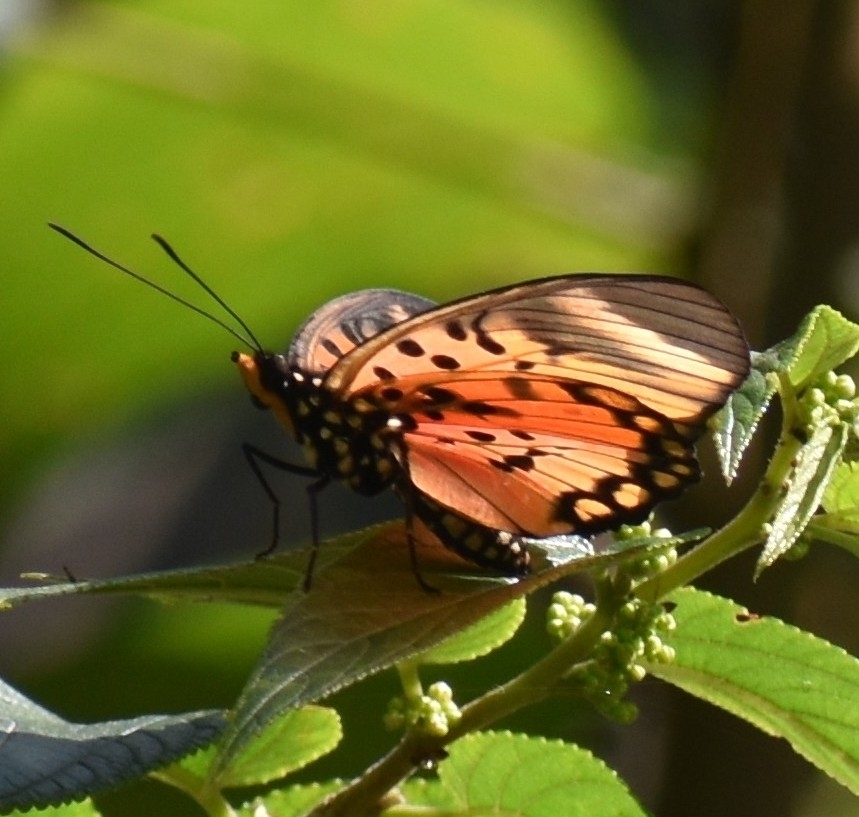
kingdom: Animalia
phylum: Arthropoda
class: Insecta
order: Lepidoptera
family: Nymphalidae
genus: Chloropoea
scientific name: Chloropoea boisduvalii
